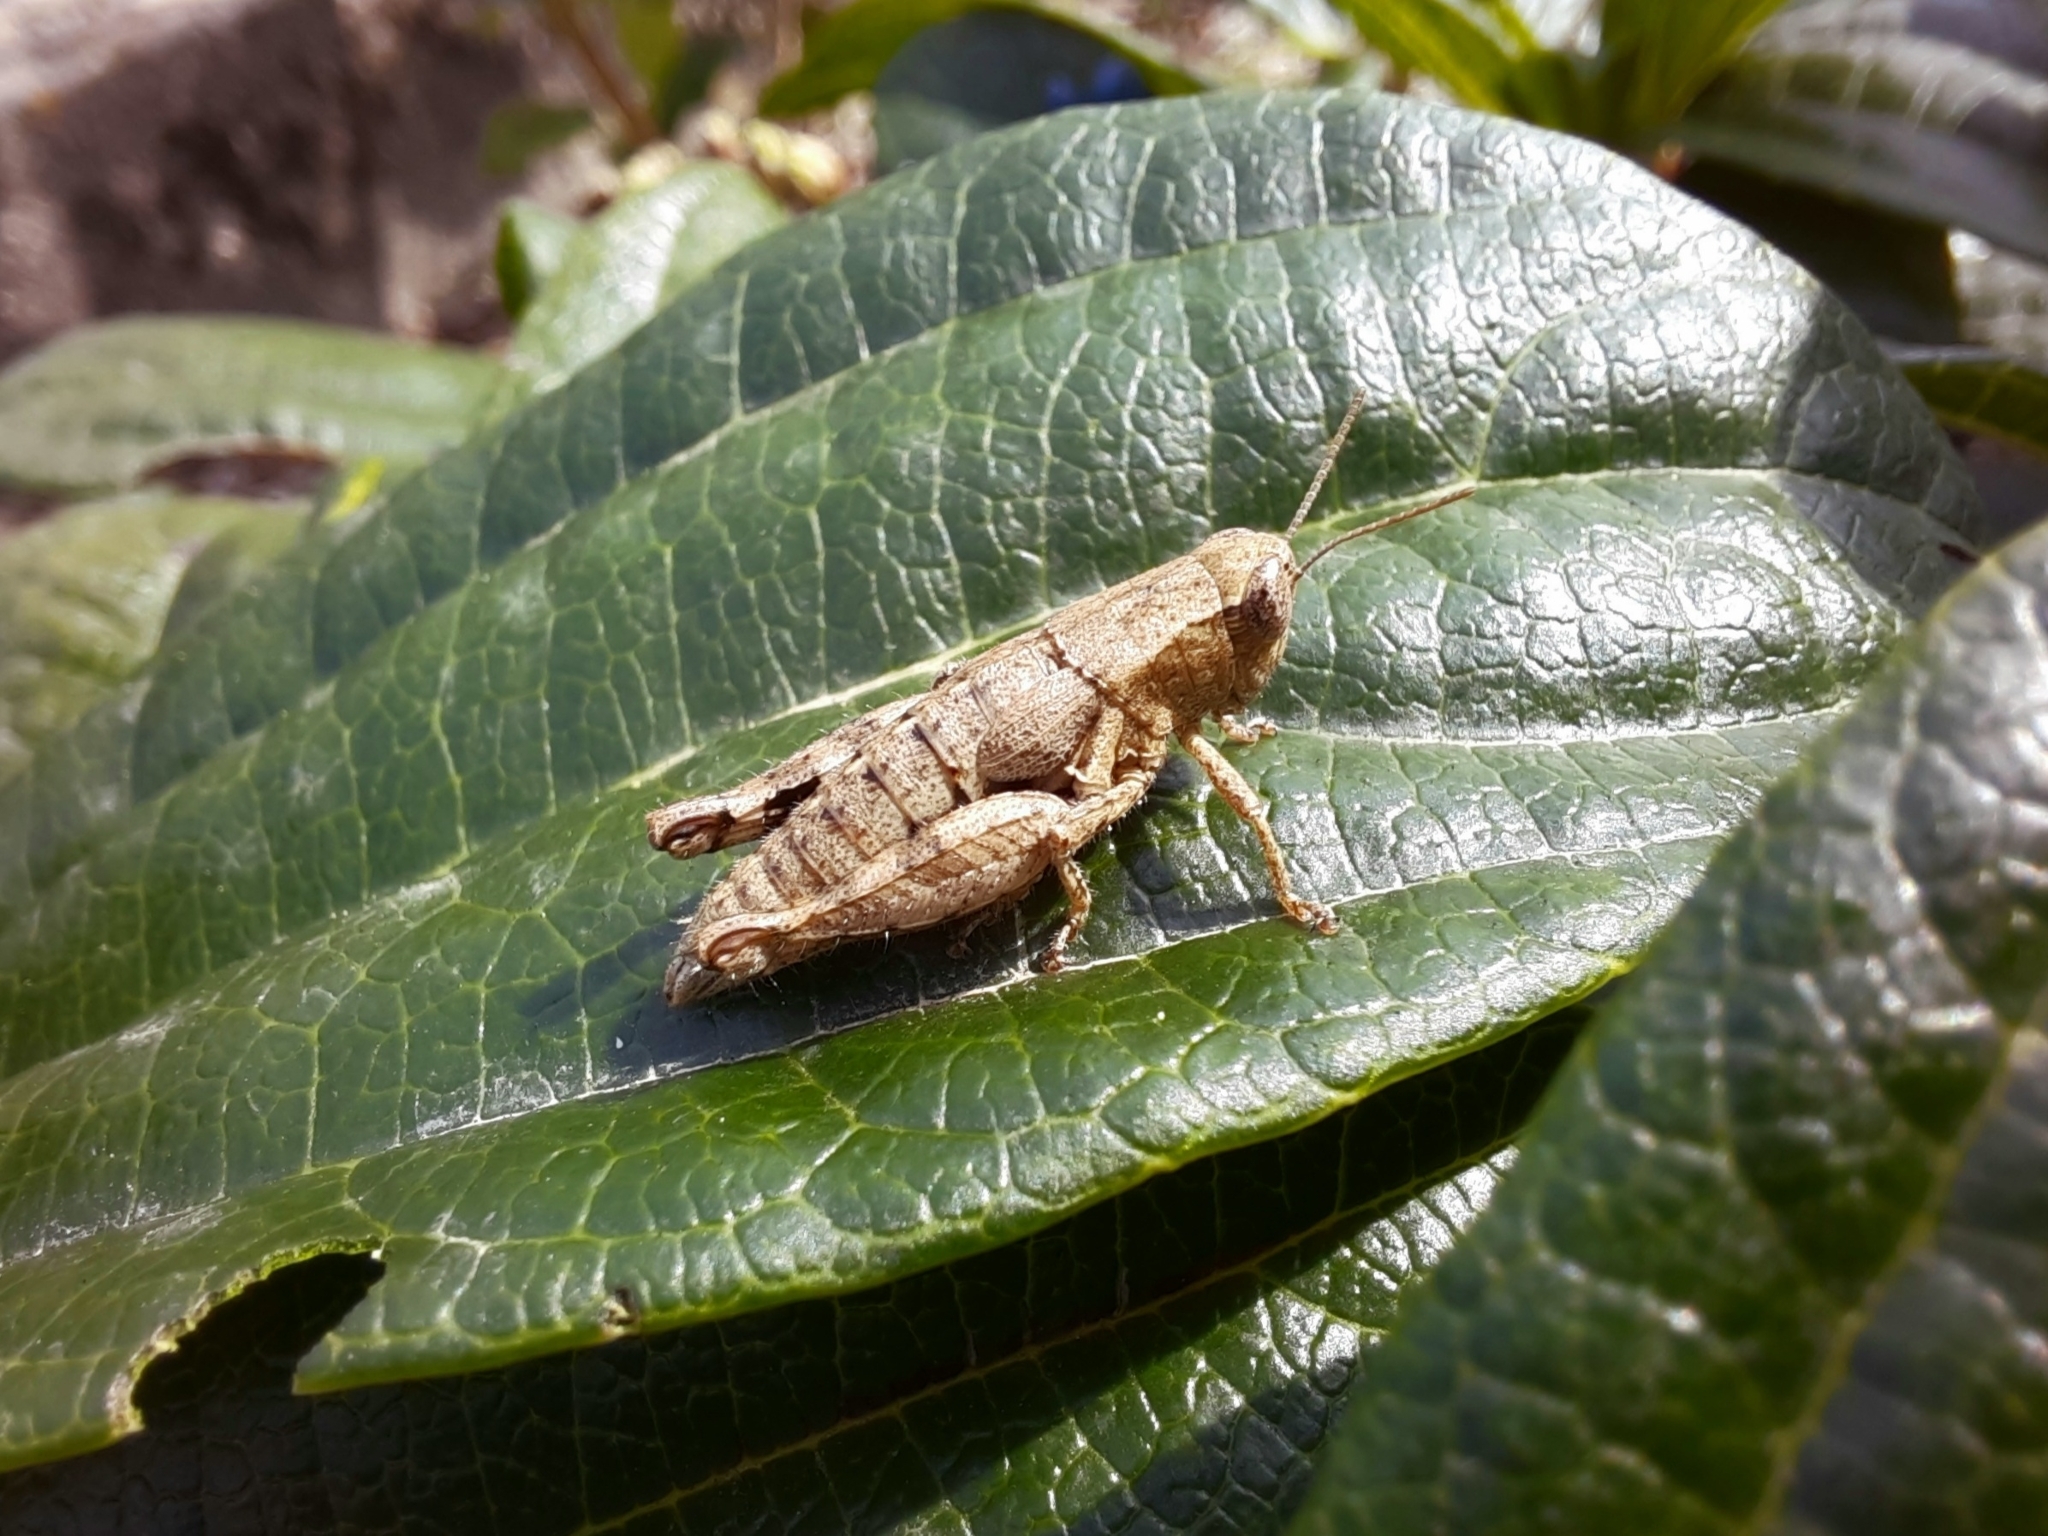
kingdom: Animalia
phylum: Arthropoda
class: Insecta
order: Orthoptera
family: Acrididae
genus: Pezotettix
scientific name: Pezotettix giornae
